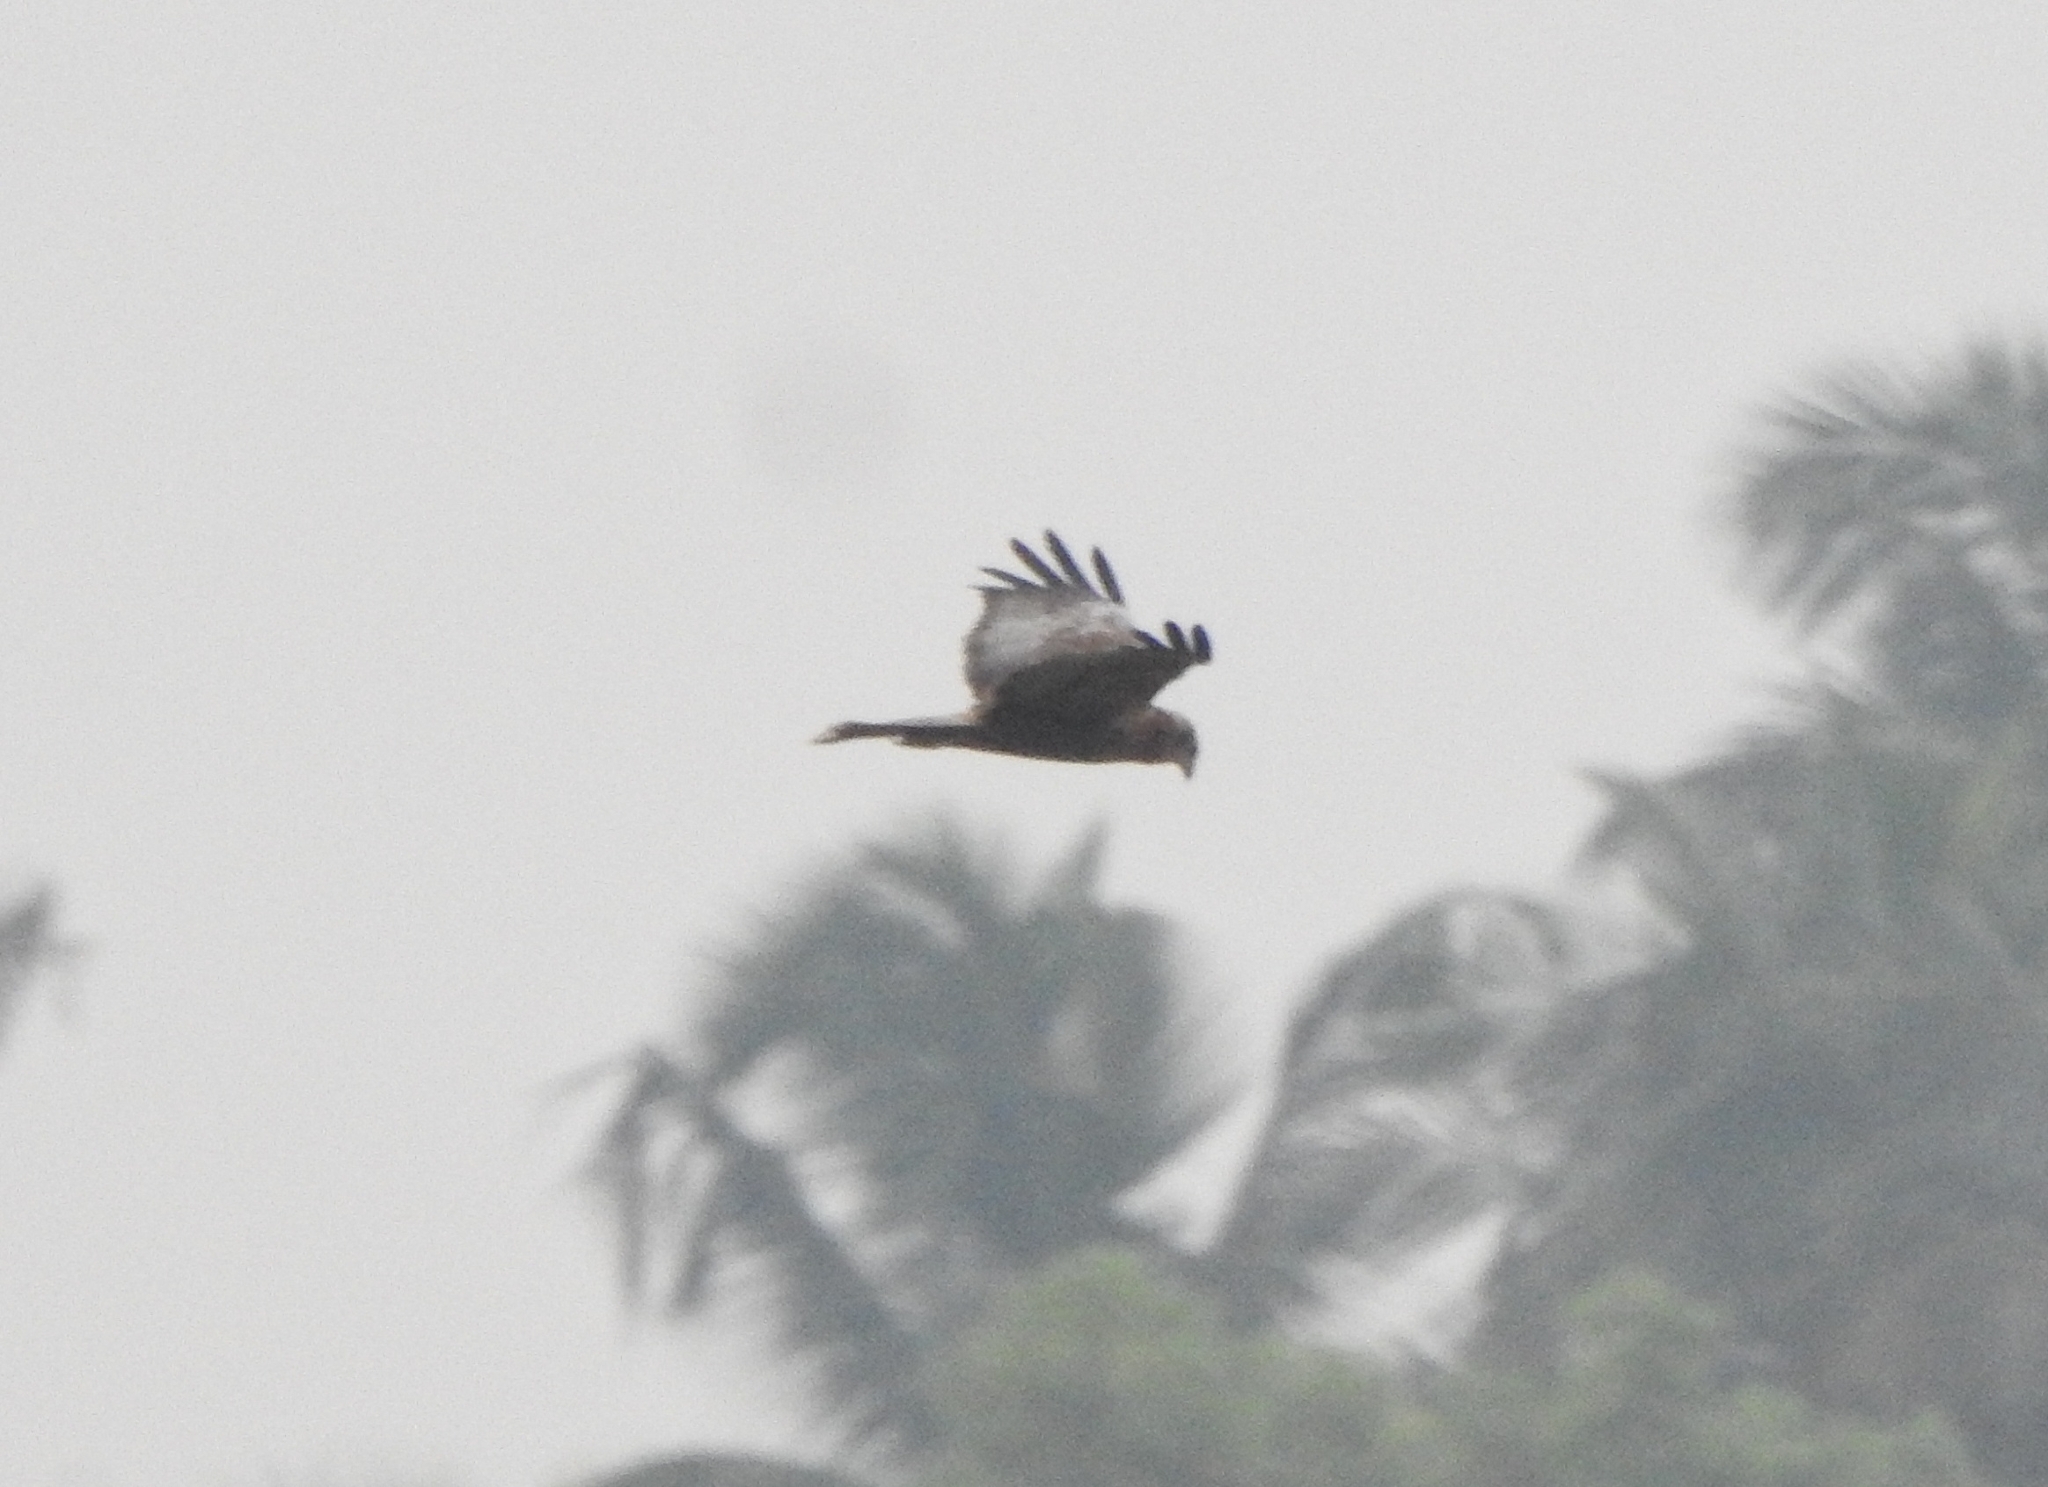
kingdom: Animalia
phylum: Chordata
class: Aves
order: Accipitriformes
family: Accipitridae
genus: Circus
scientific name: Circus aeruginosus
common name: Western marsh harrier
